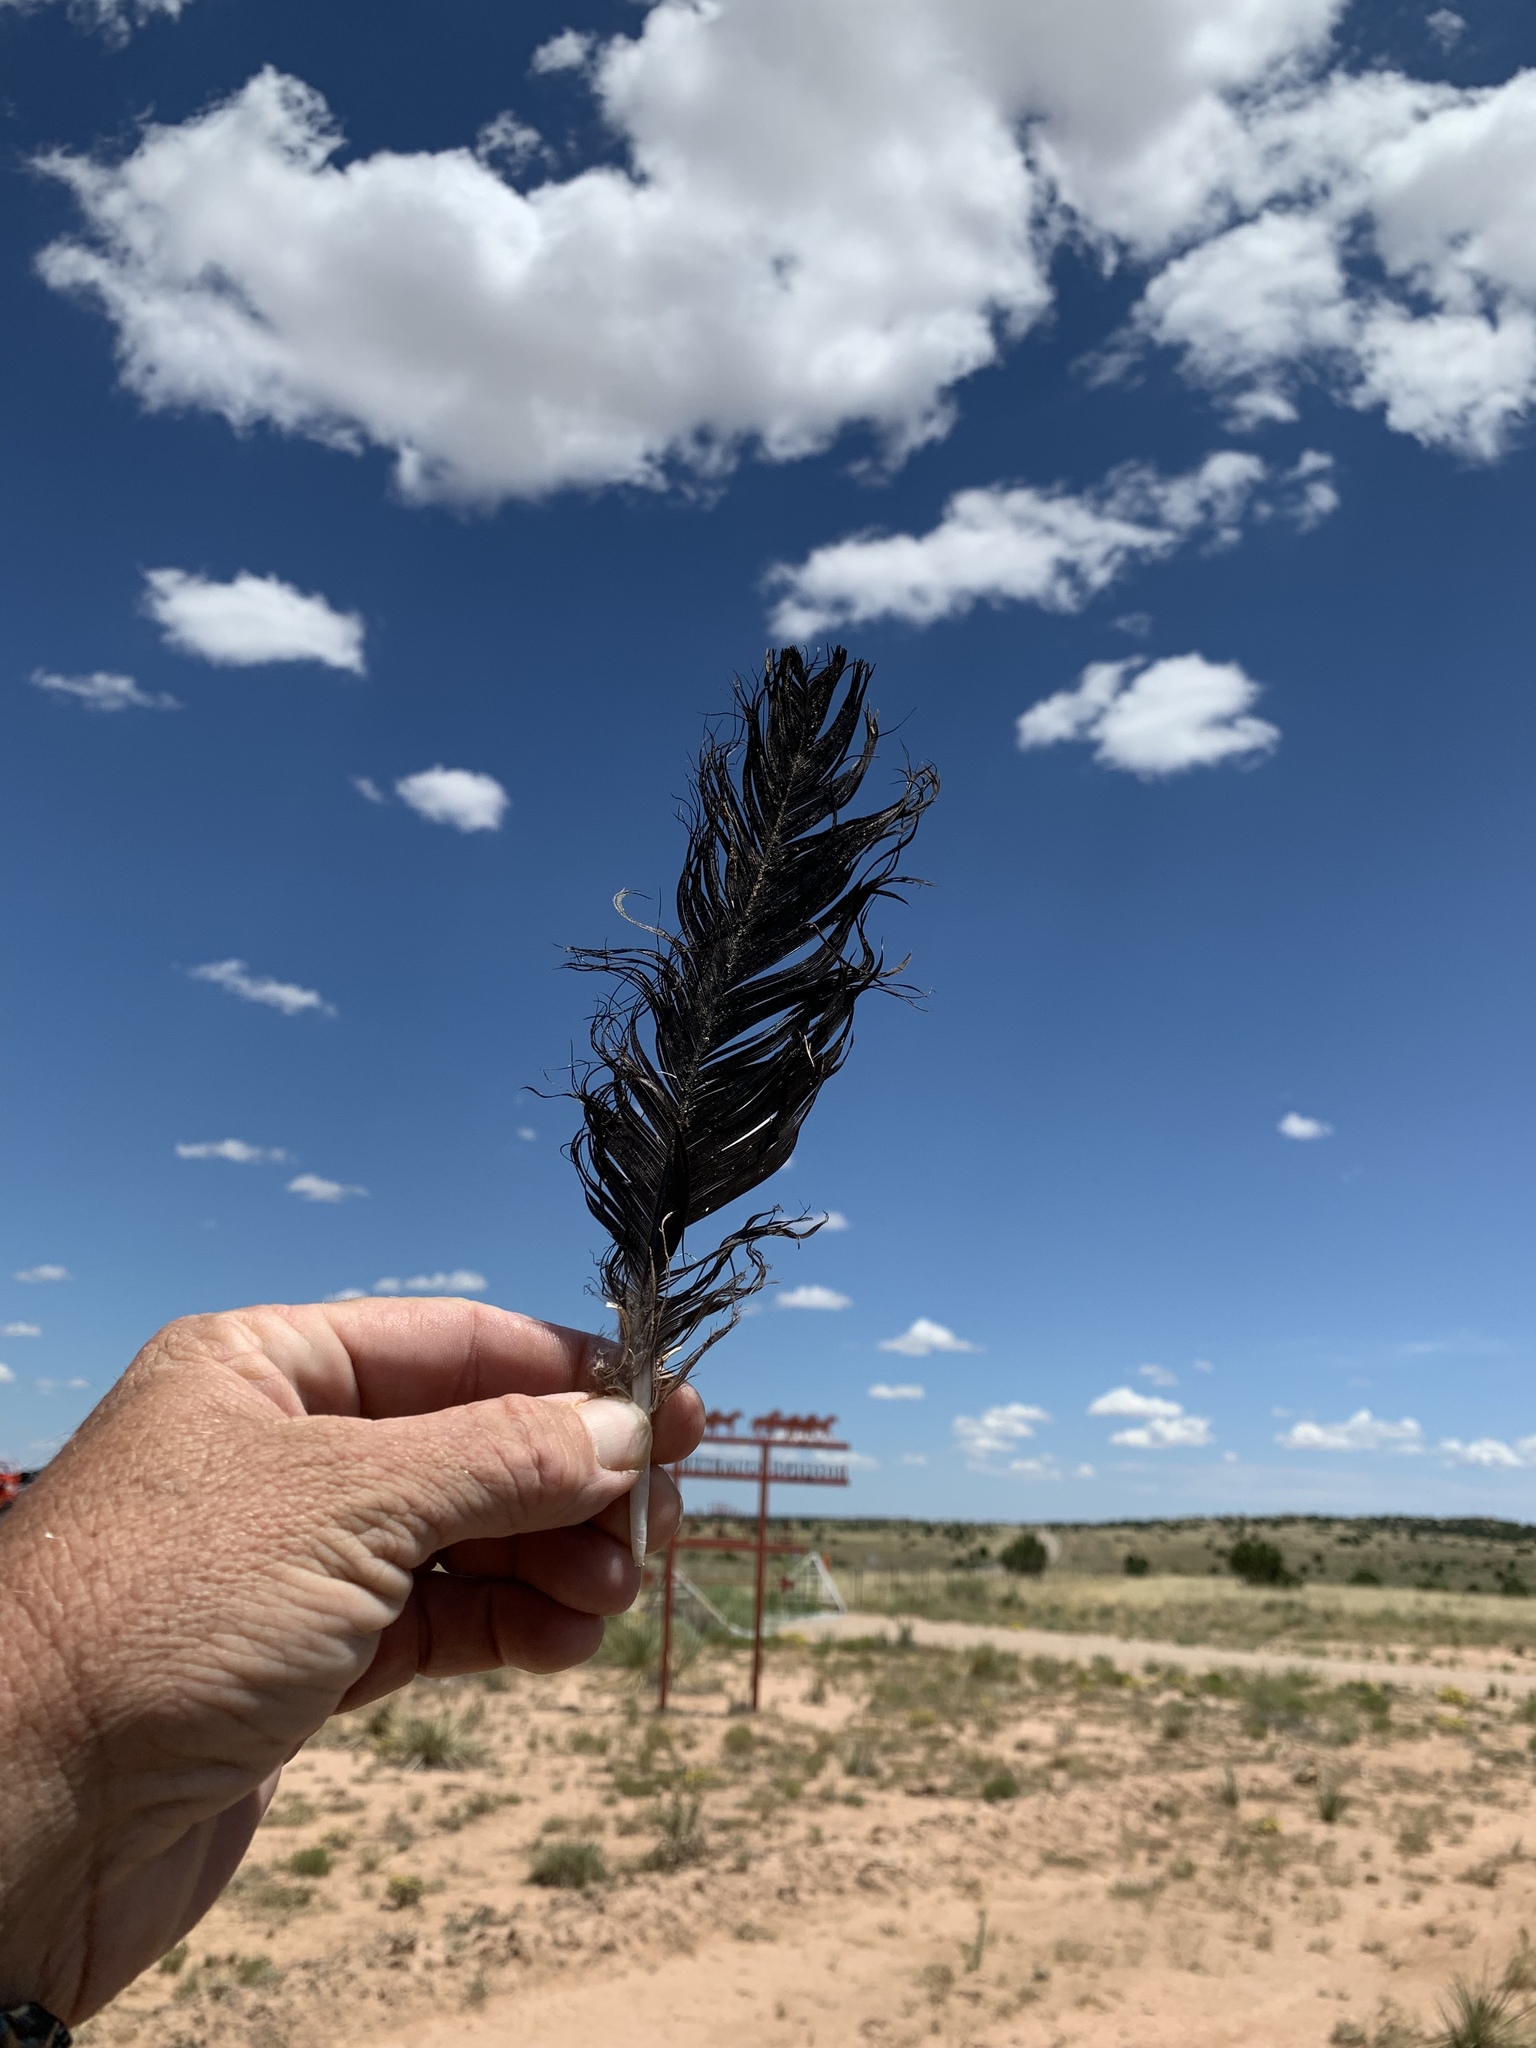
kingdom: Animalia
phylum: Chordata
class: Aves
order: Passeriformes
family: Corvidae
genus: Corvus
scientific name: Corvus corax
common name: Common raven
